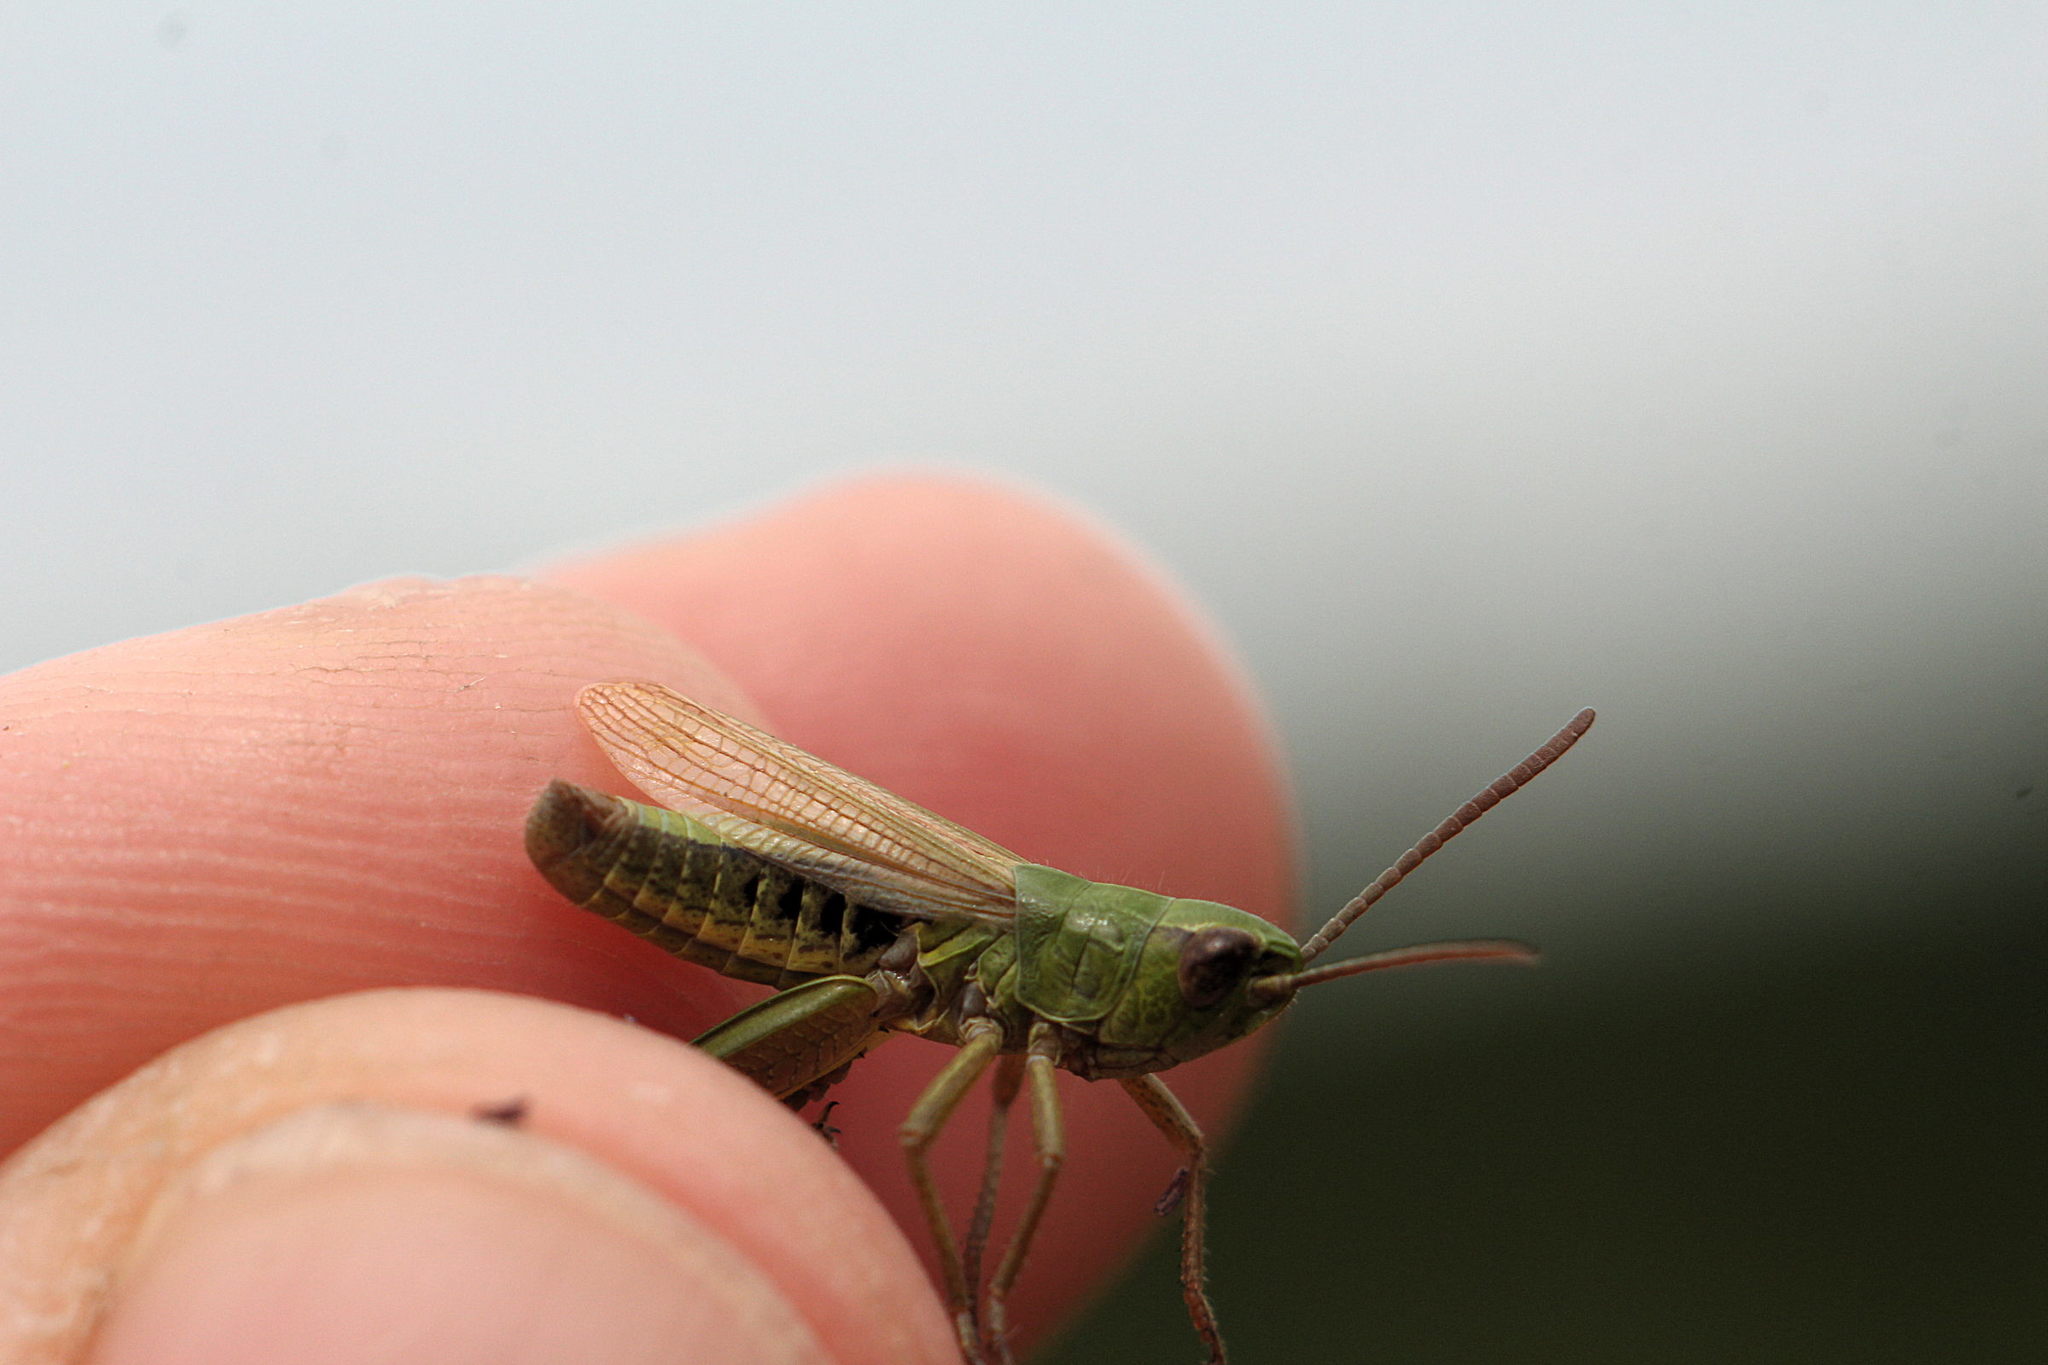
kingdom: Animalia
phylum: Arthropoda
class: Insecta
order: Orthoptera
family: Acrididae
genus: Pseudochorthippus
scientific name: Pseudochorthippus parallelus
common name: Meadow grasshopper
